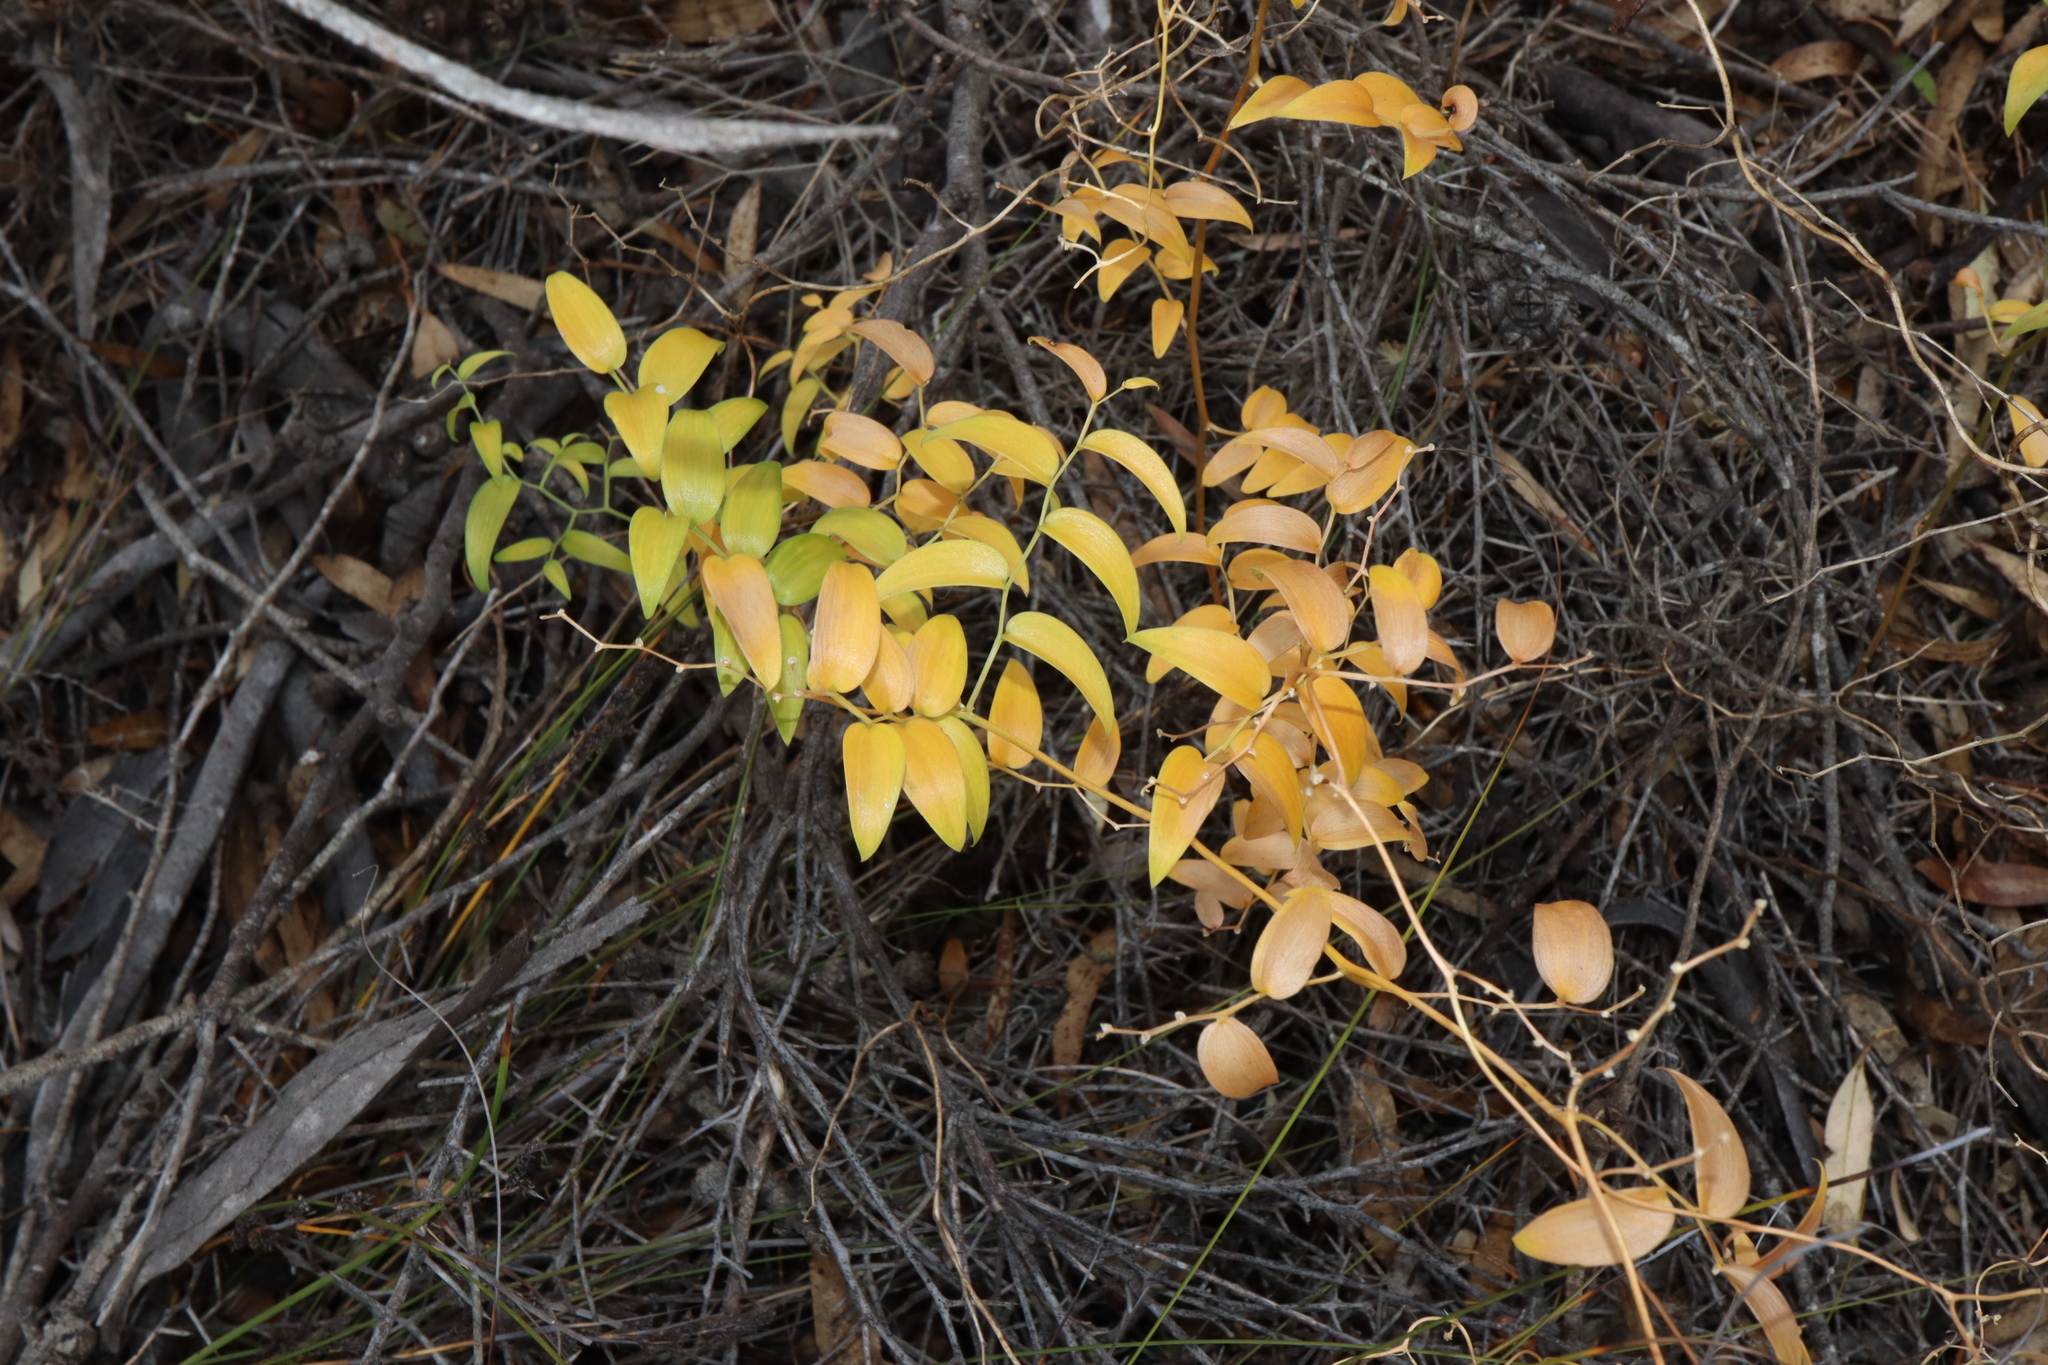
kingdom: Plantae
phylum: Tracheophyta
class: Liliopsida
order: Asparagales
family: Asparagaceae
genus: Asparagus
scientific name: Asparagus asparagoides
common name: African asparagus fern
